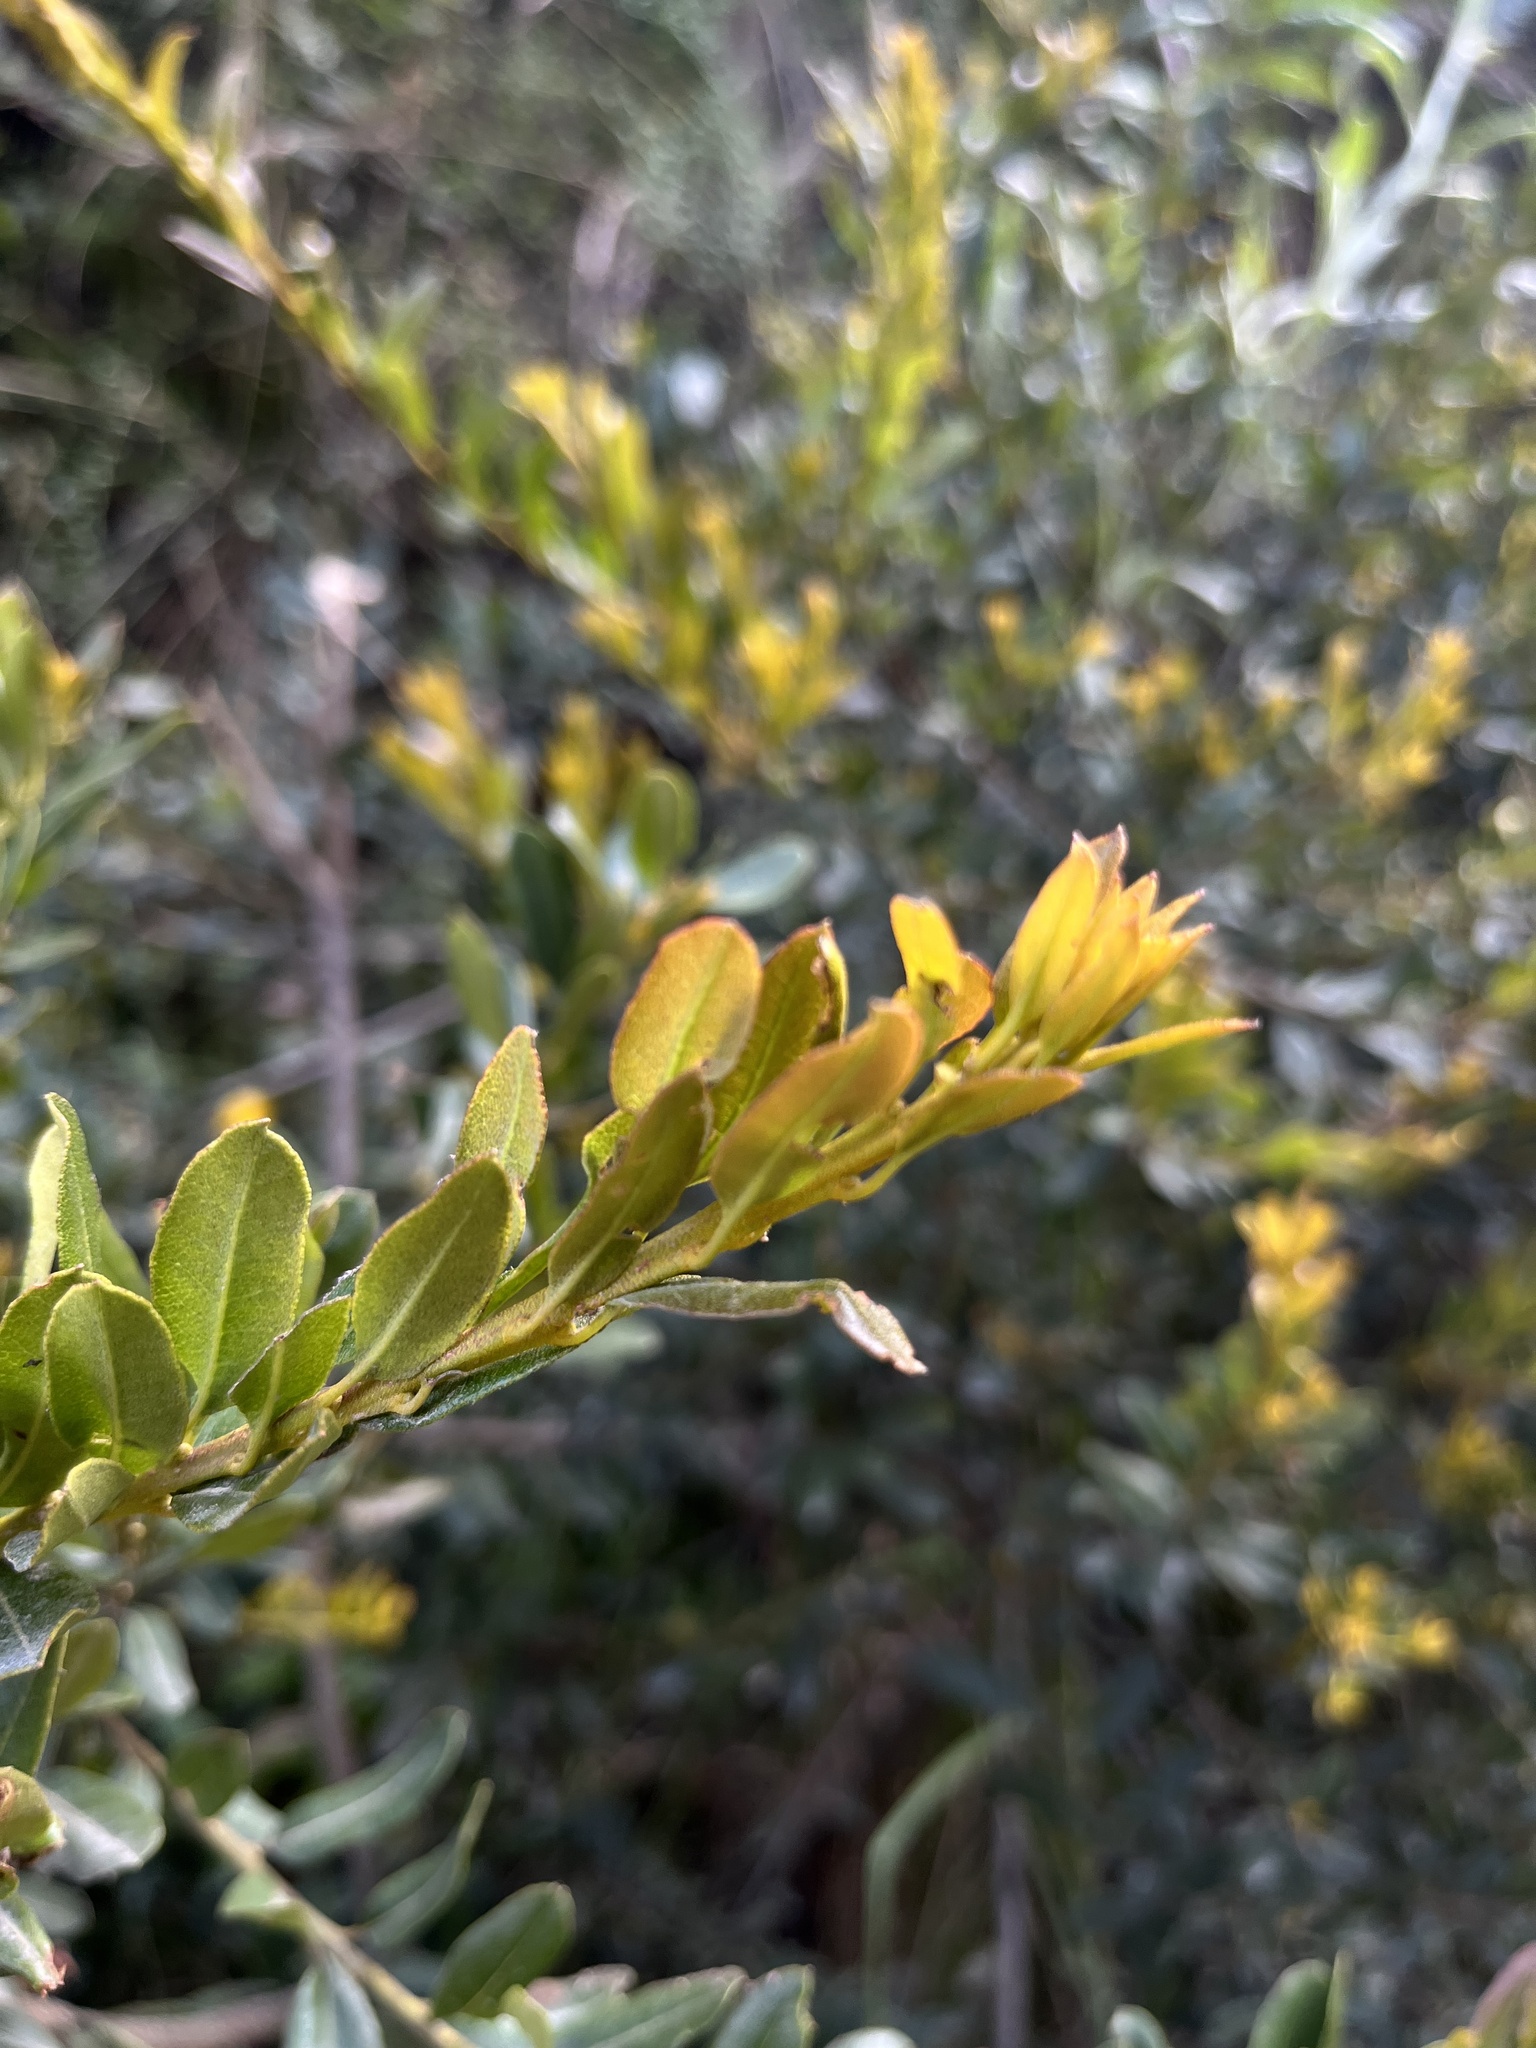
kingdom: Plantae
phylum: Tracheophyta
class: Magnoliopsida
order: Fagales
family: Myricaceae
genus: Morella
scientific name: Morella parvifolia
